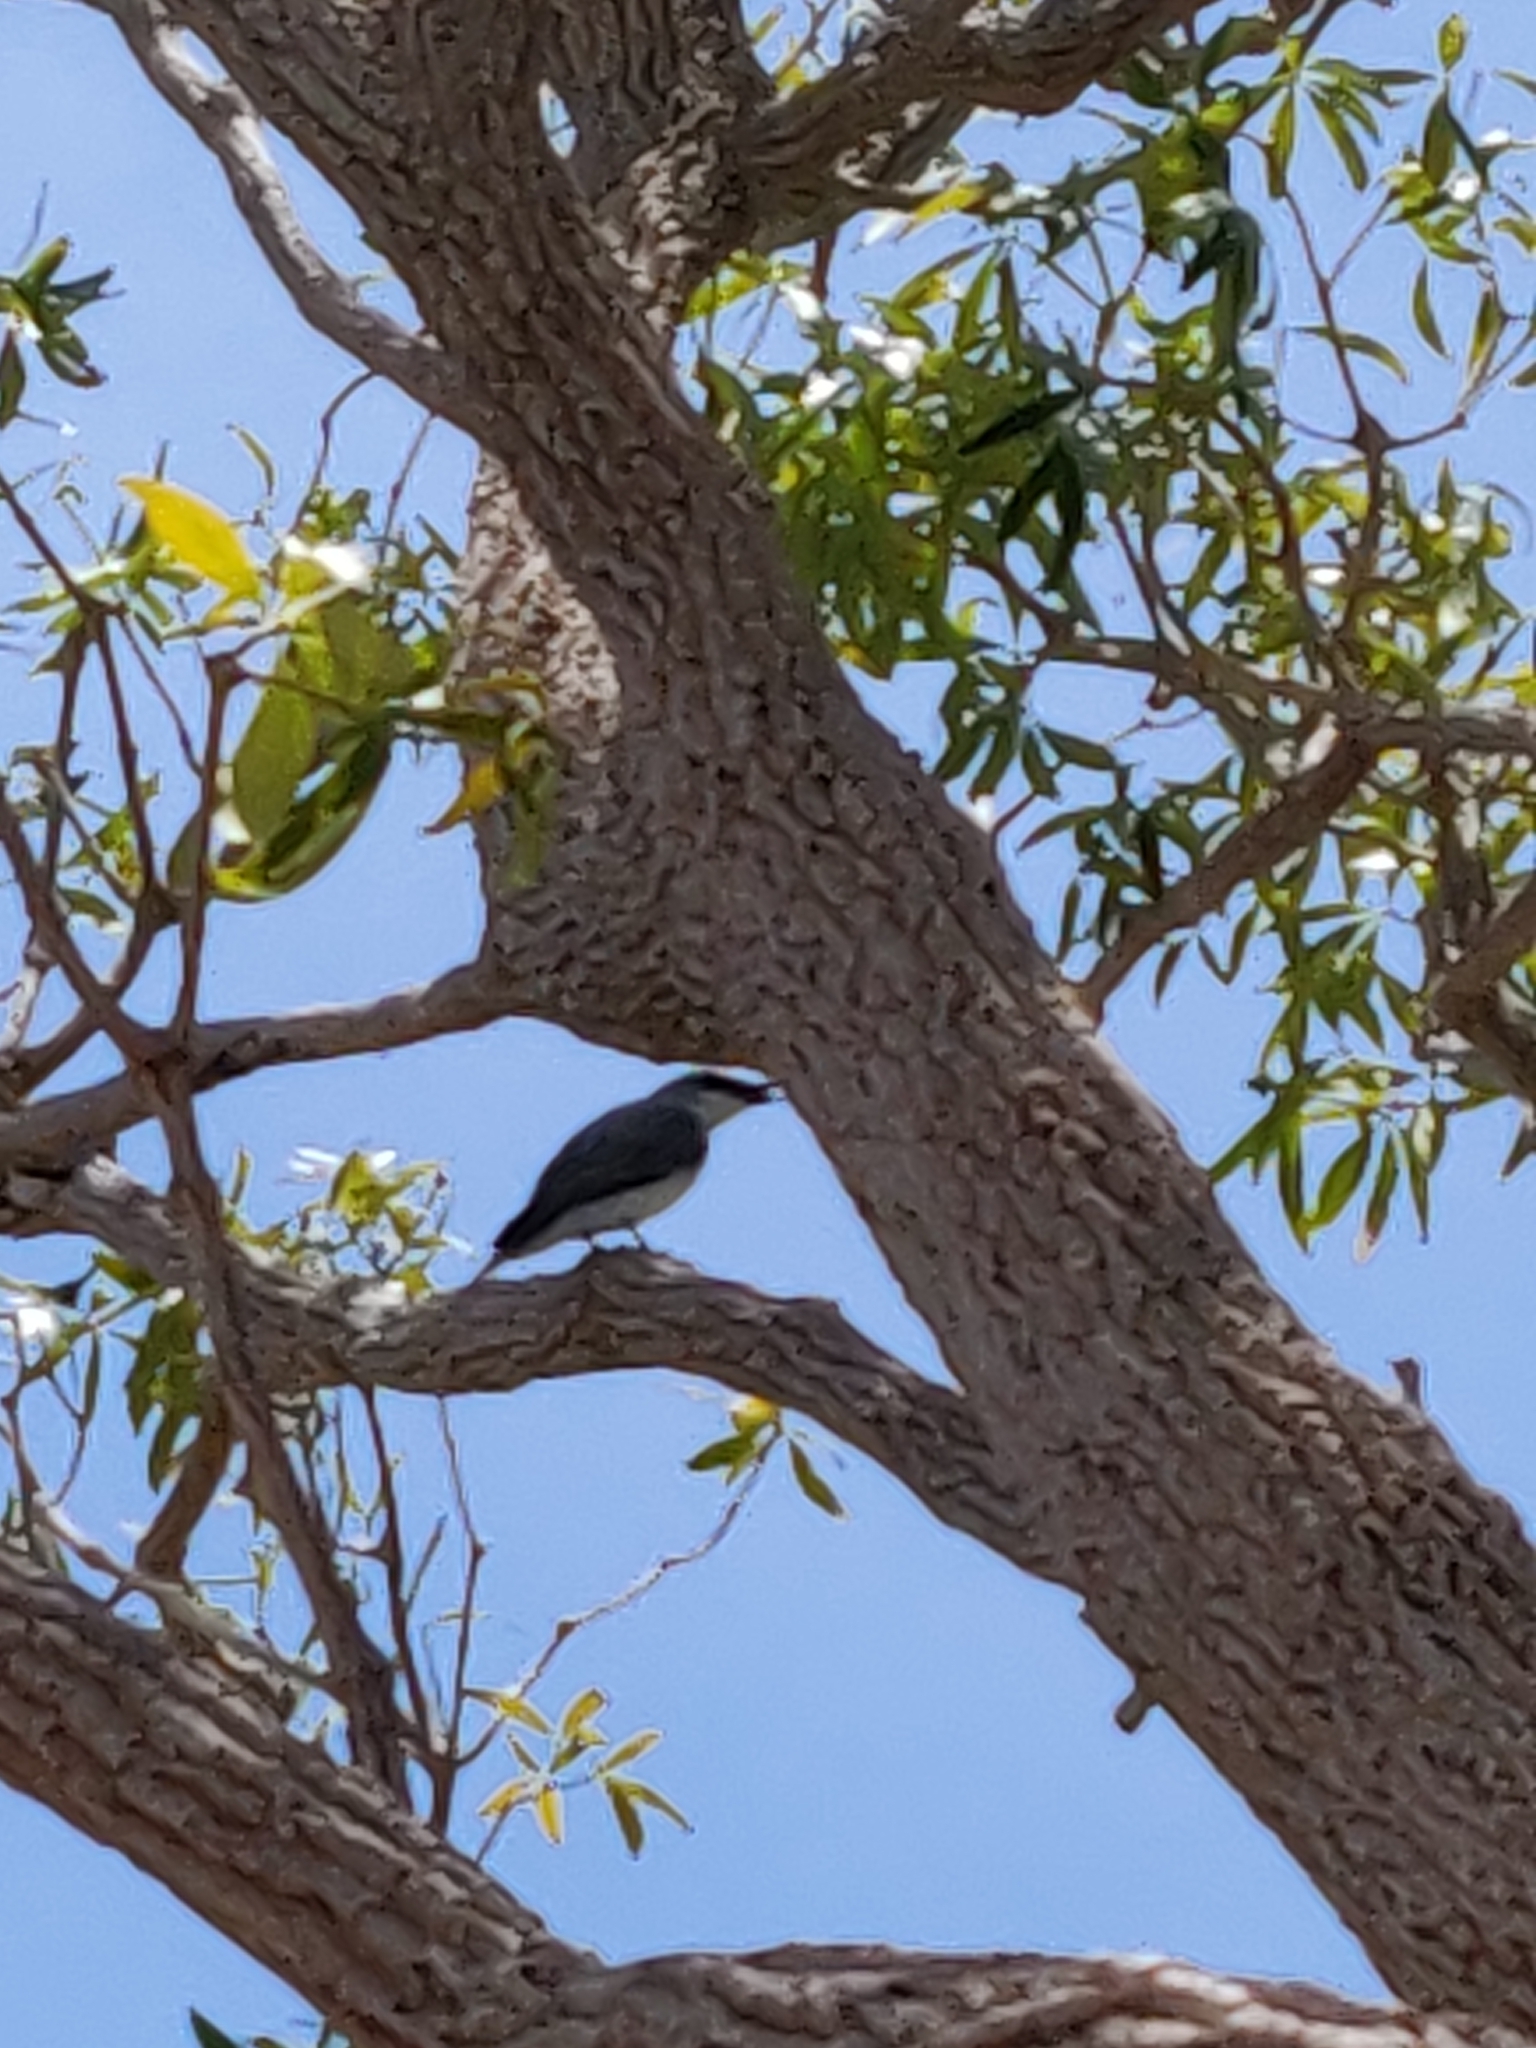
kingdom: Animalia
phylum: Chordata
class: Aves
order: Passeriformes
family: Campephagidae
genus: Coracina
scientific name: Coracina papuensis
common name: White-bellied cuckooshrike
